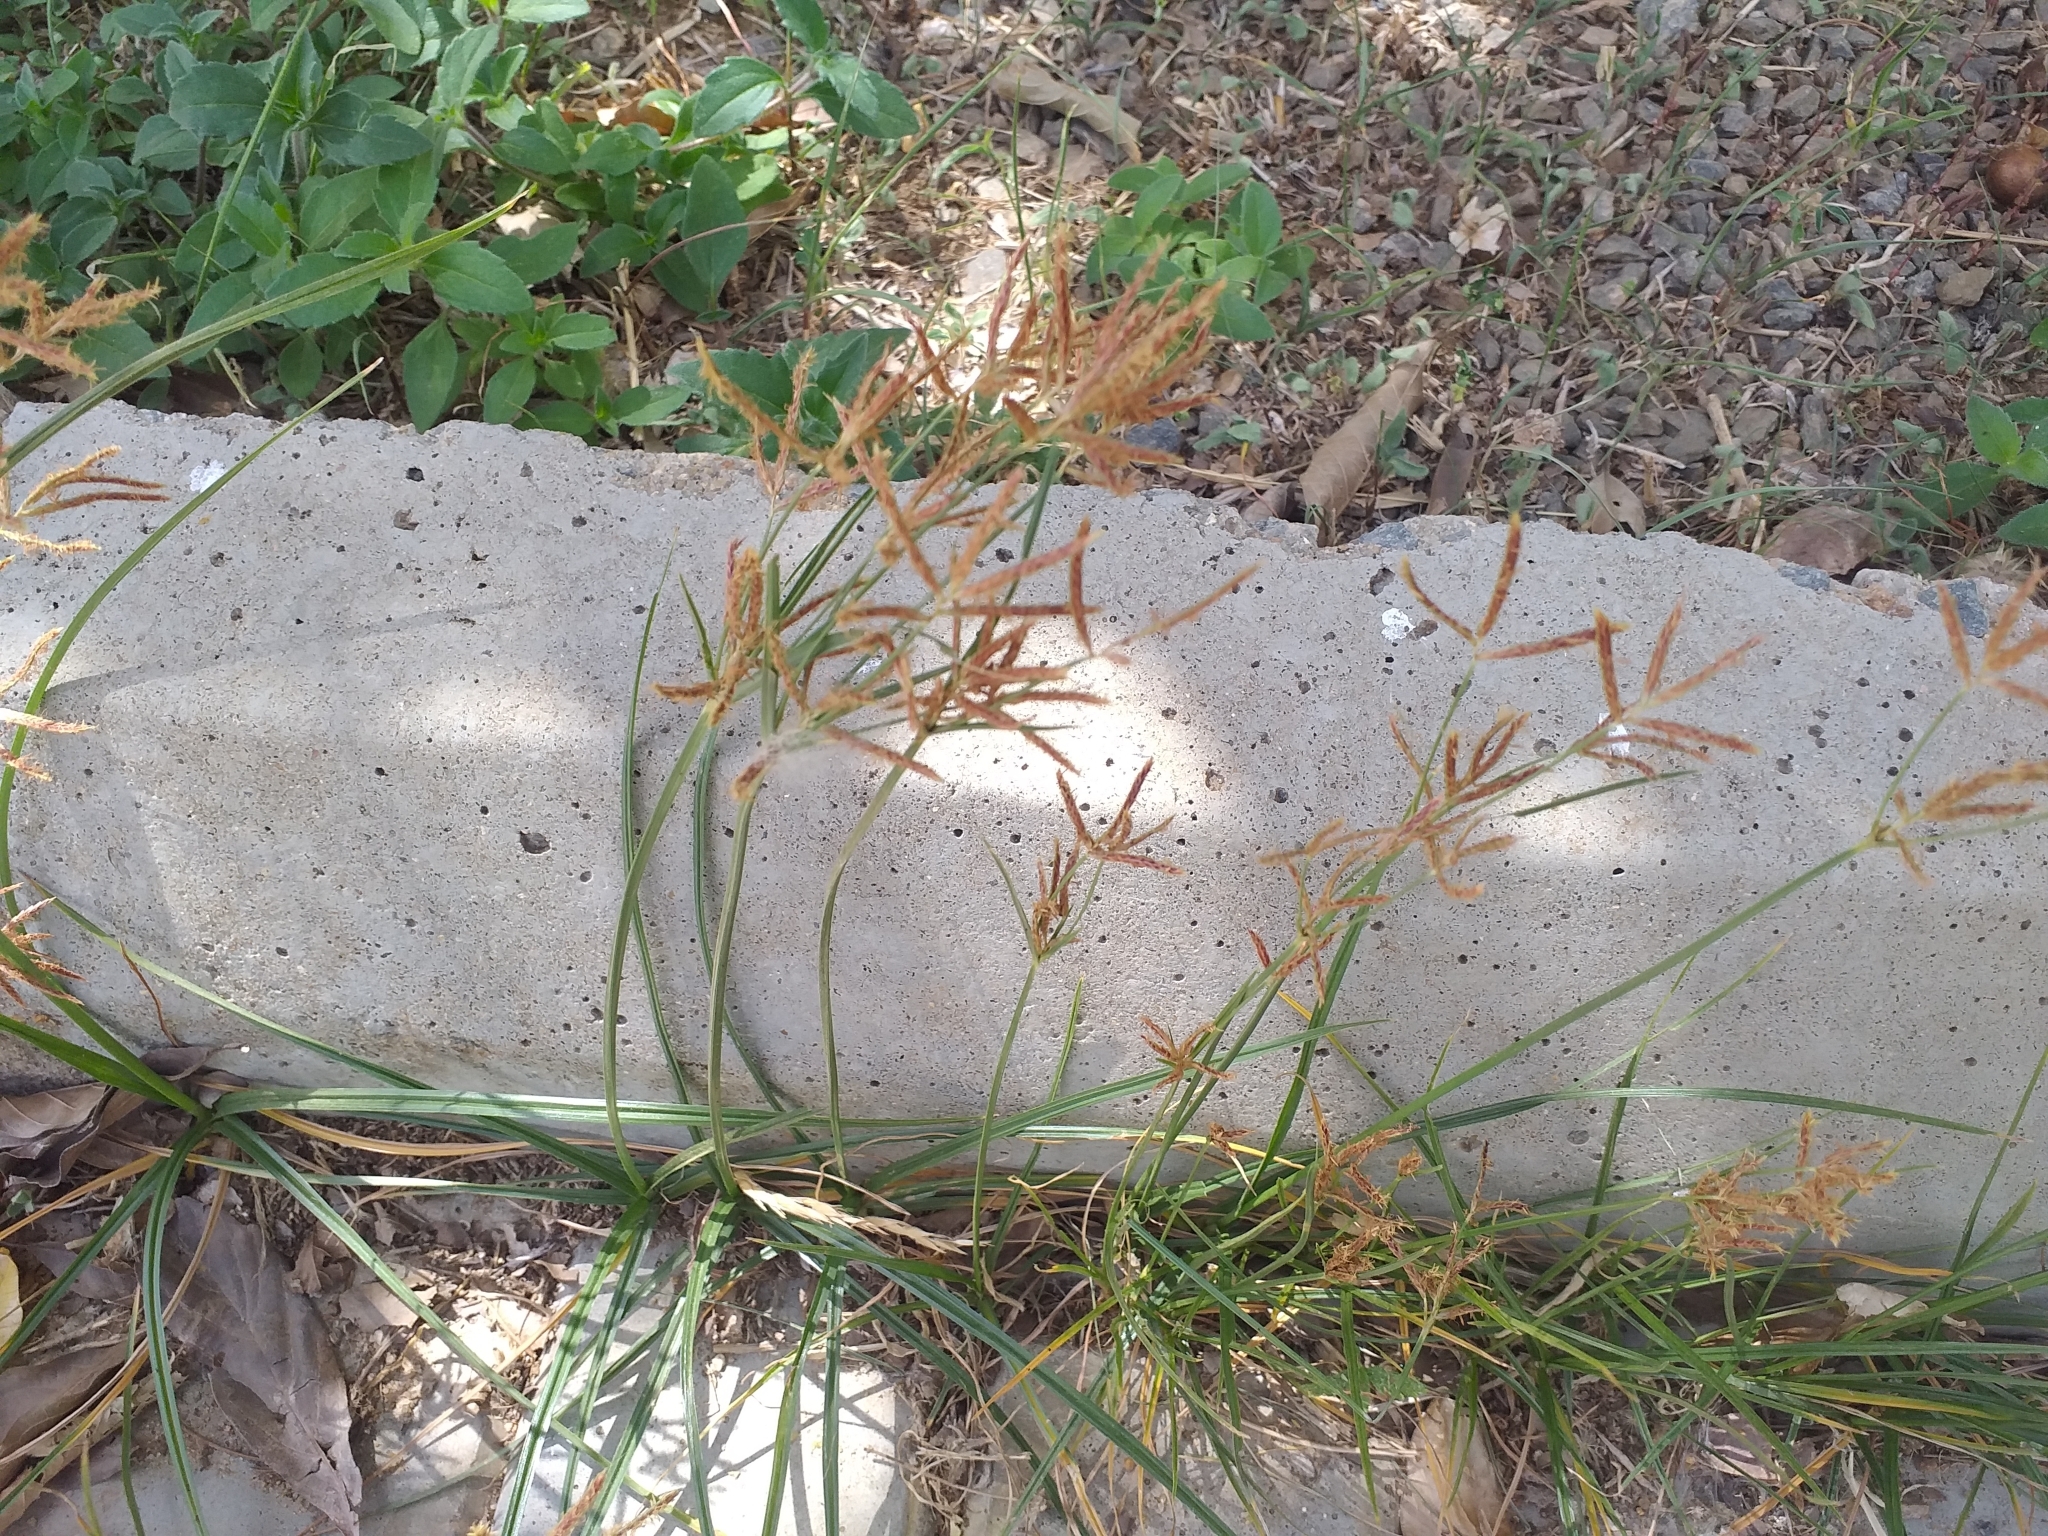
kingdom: Plantae
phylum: Tracheophyta
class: Liliopsida
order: Poales
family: Cyperaceae
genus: Cyperus
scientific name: Cyperus rotundus
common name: Nutgrass
